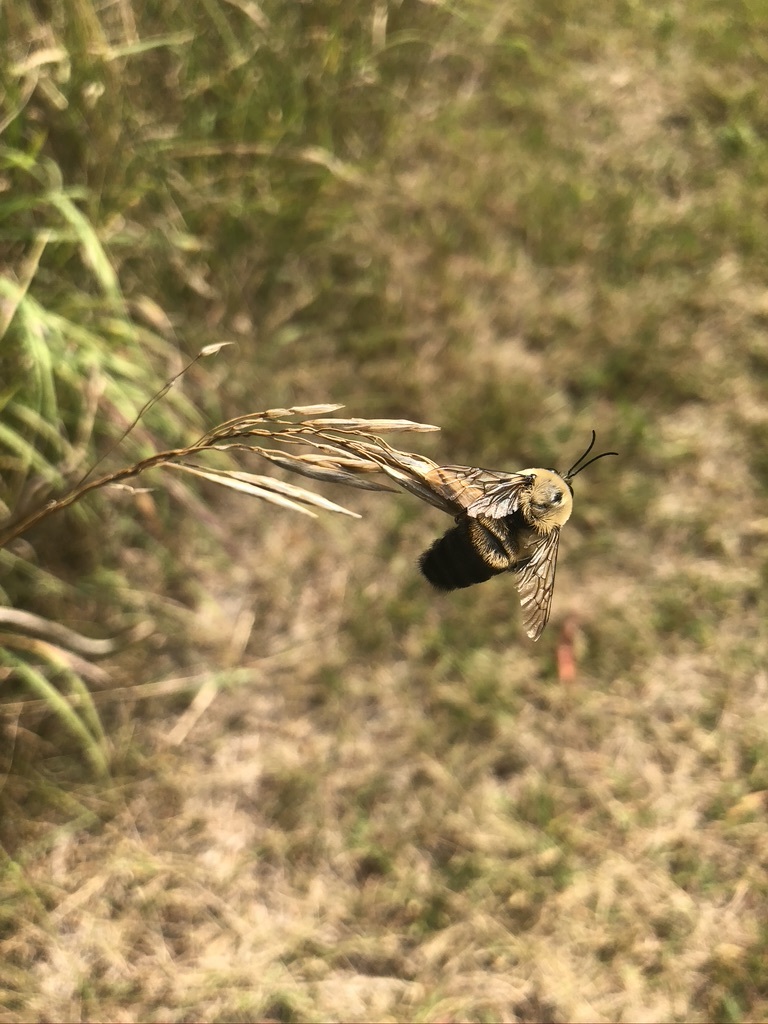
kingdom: Animalia
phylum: Arthropoda
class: Insecta
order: Hymenoptera
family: Apidae
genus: Bombus
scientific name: Bombus griseocollis
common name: Brown-belted bumble bee
